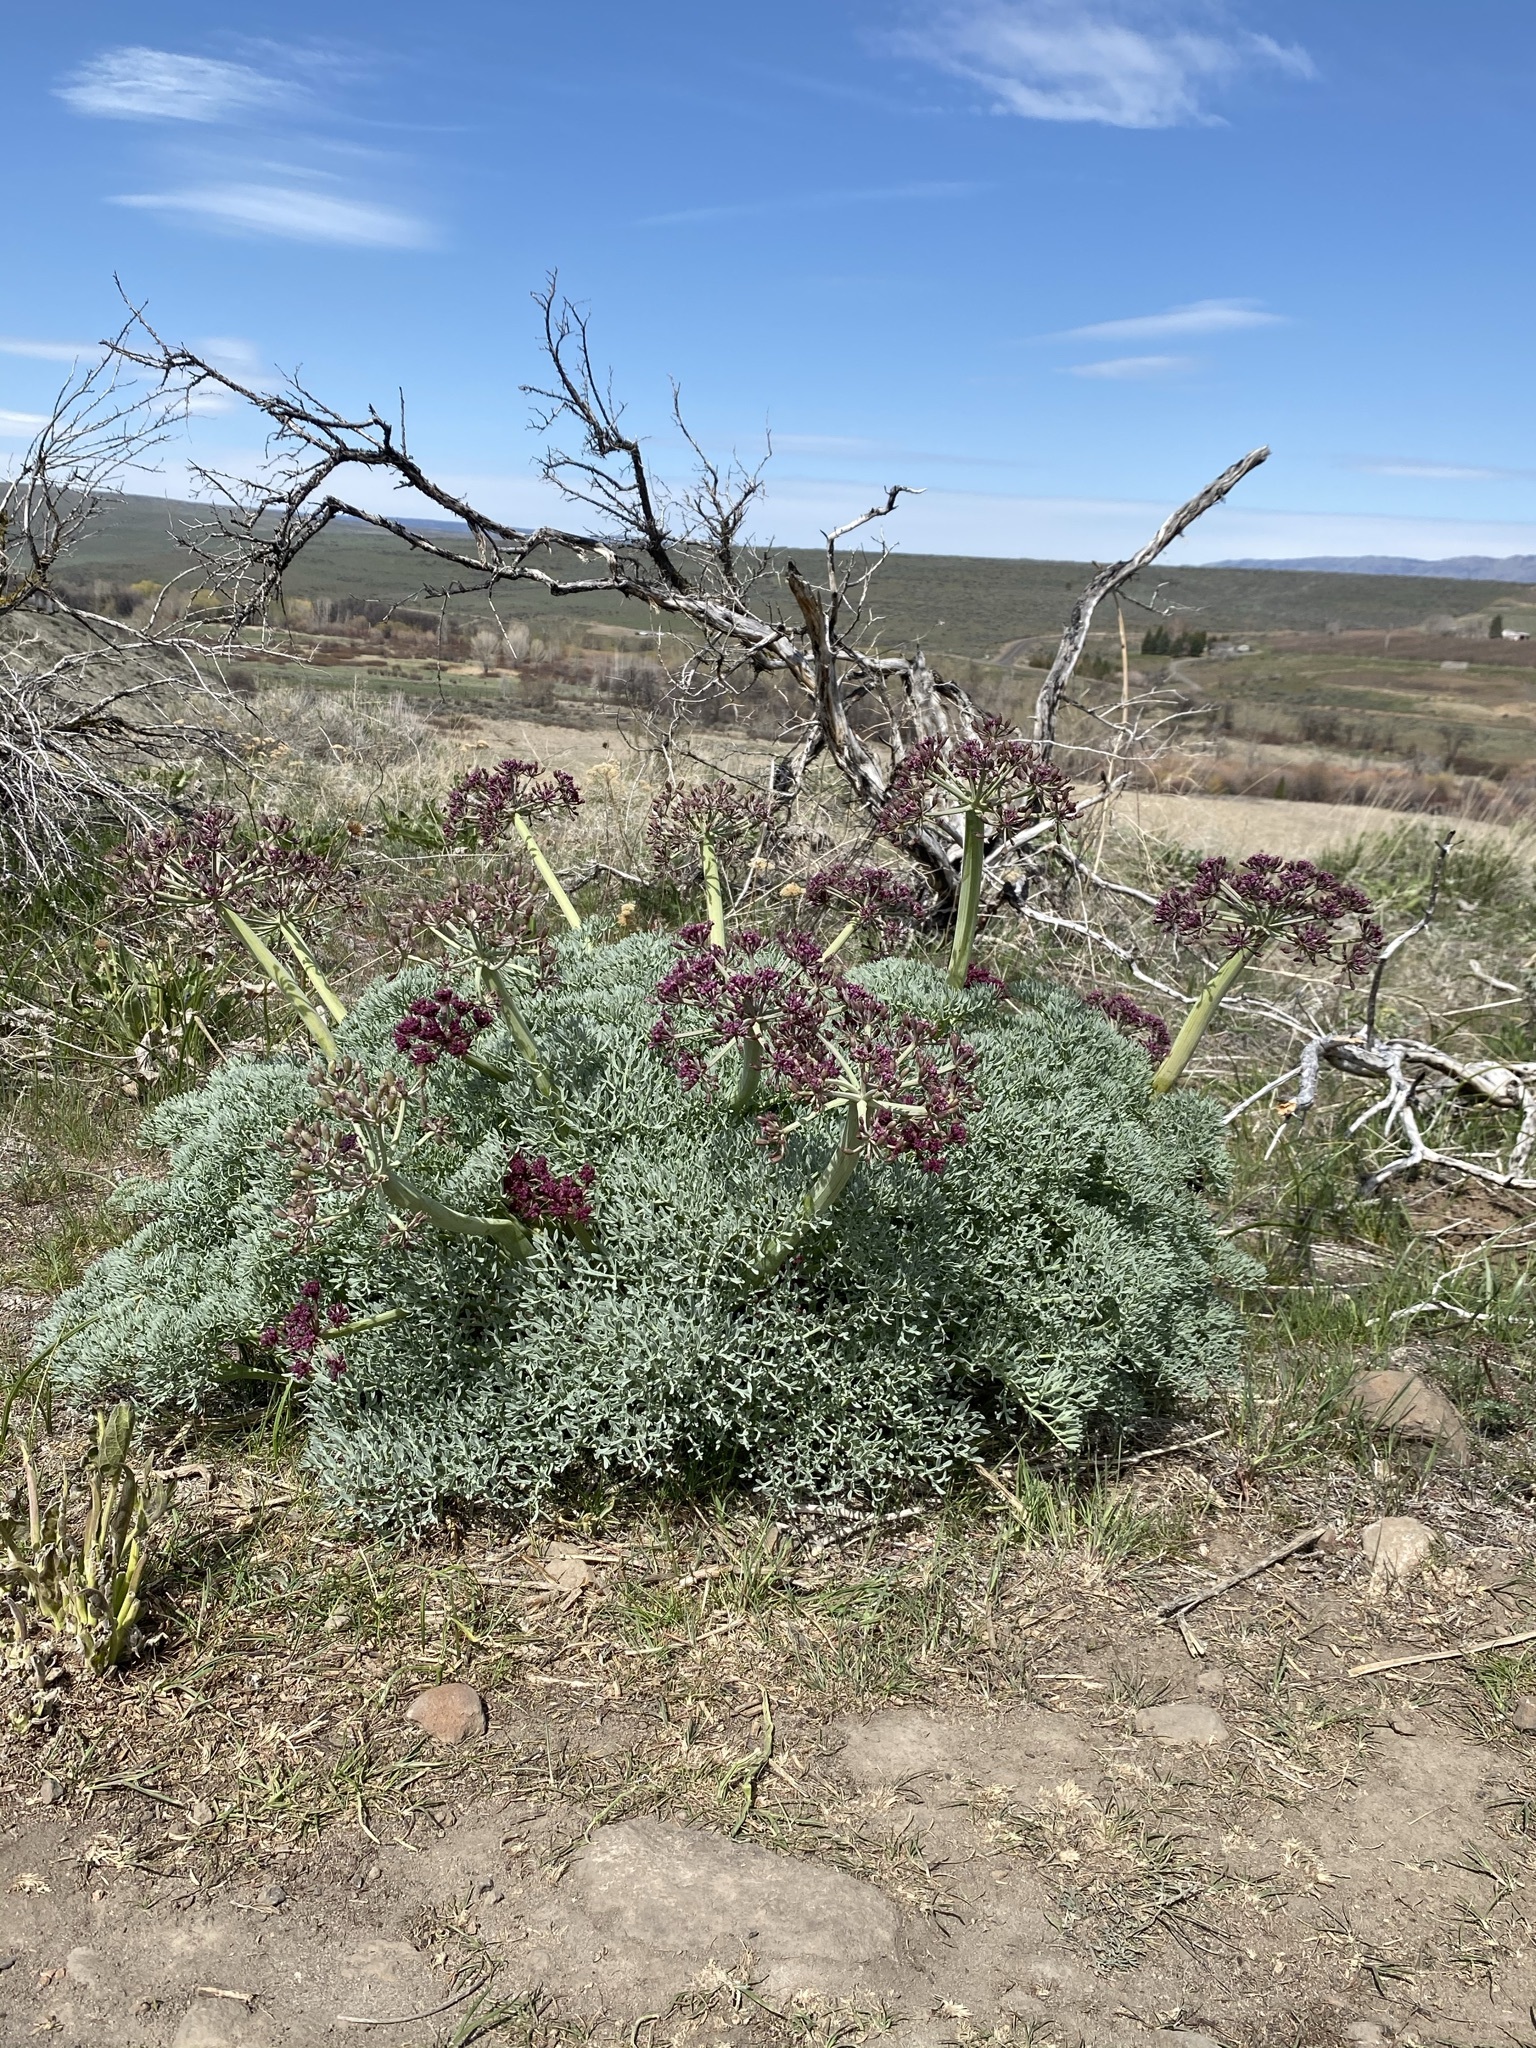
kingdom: Plantae
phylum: Tracheophyta
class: Magnoliopsida
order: Apiales
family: Apiaceae
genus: Lomatium
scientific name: Lomatium columbianum
